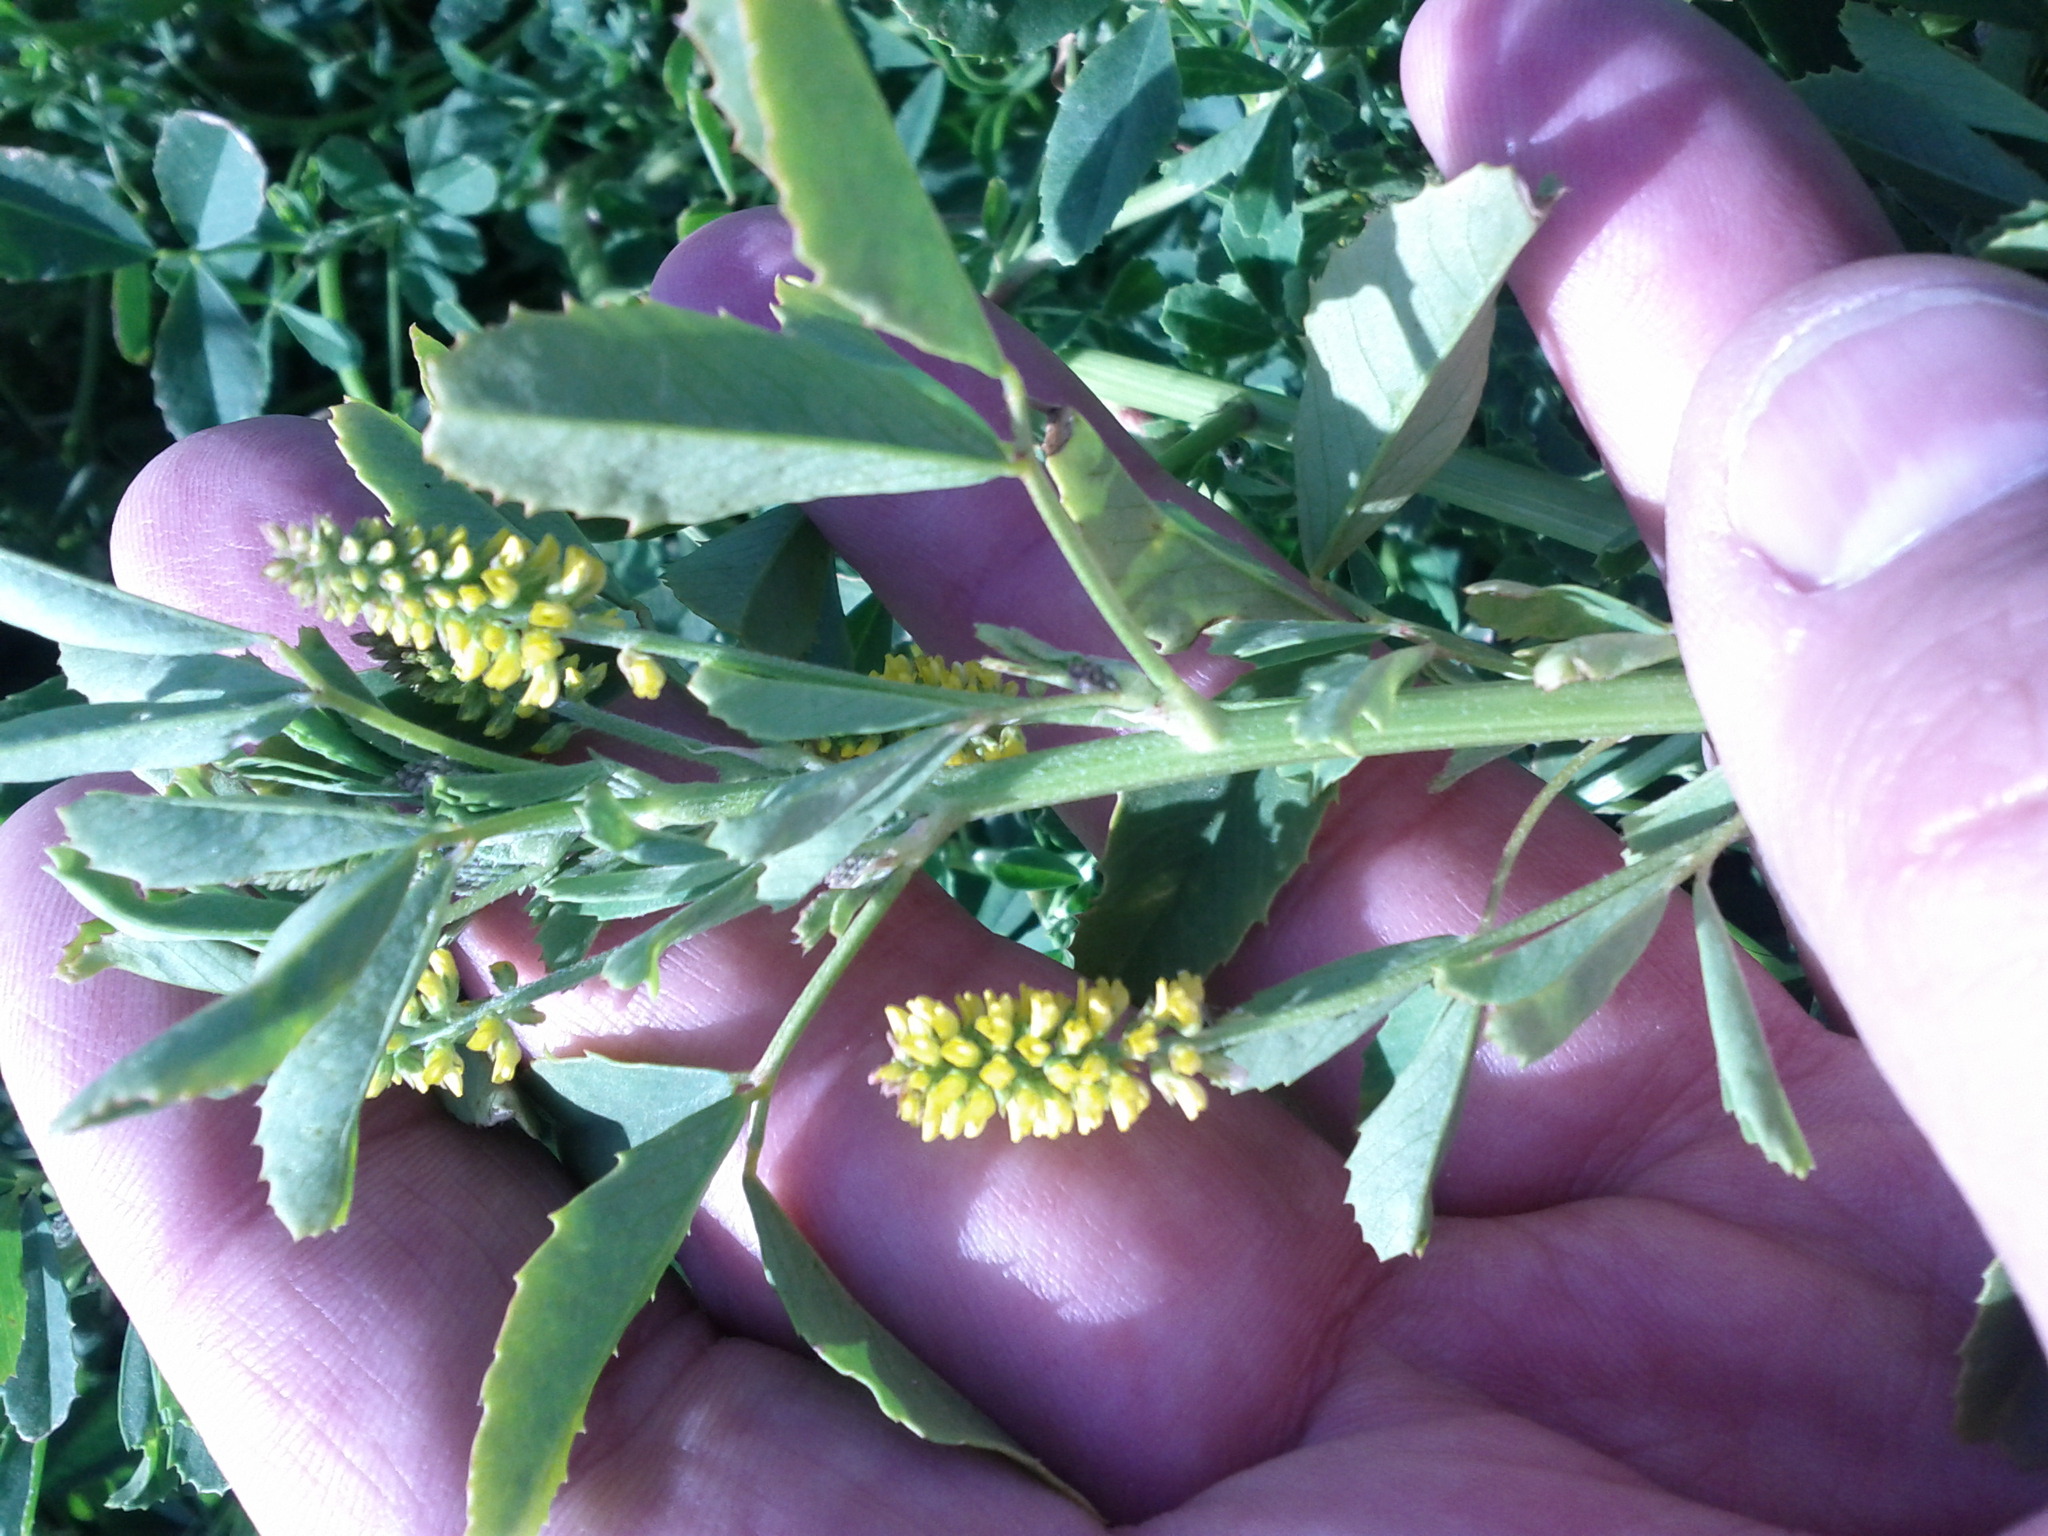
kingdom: Plantae
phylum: Tracheophyta
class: Magnoliopsida
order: Fabales
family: Fabaceae
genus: Melilotus
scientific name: Melilotus indicus
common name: Small melilot
